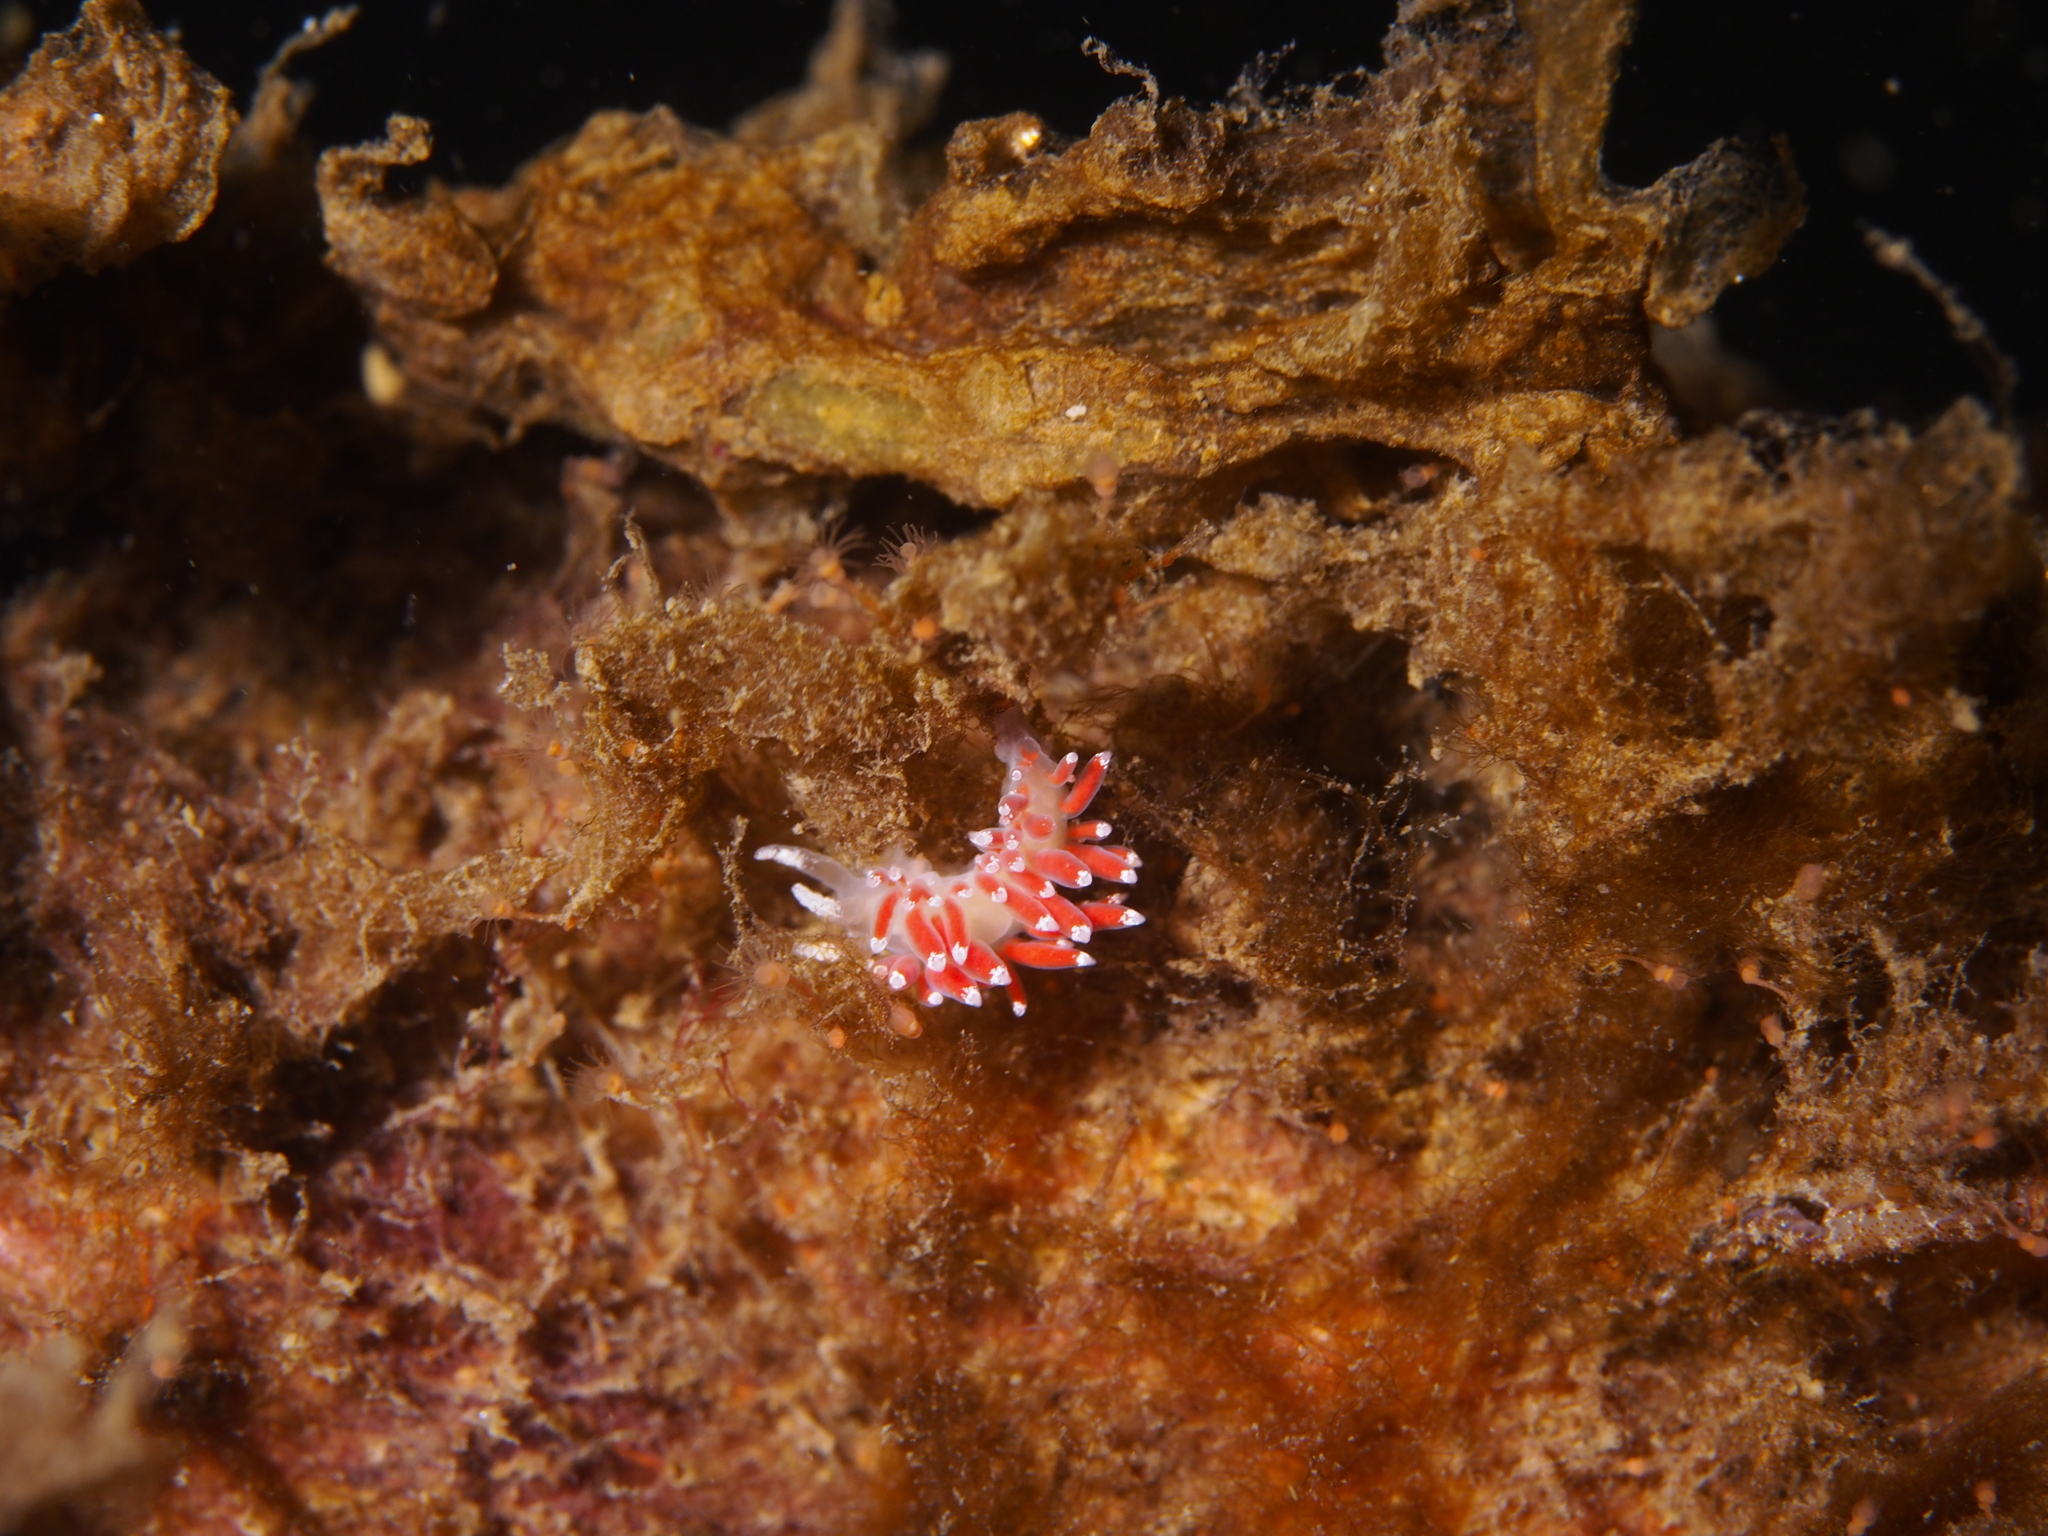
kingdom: Animalia
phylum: Mollusca
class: Gastropoda
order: Nudibranchia
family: Coryphellidae
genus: Coryphella
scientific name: Coryphella gracilis
